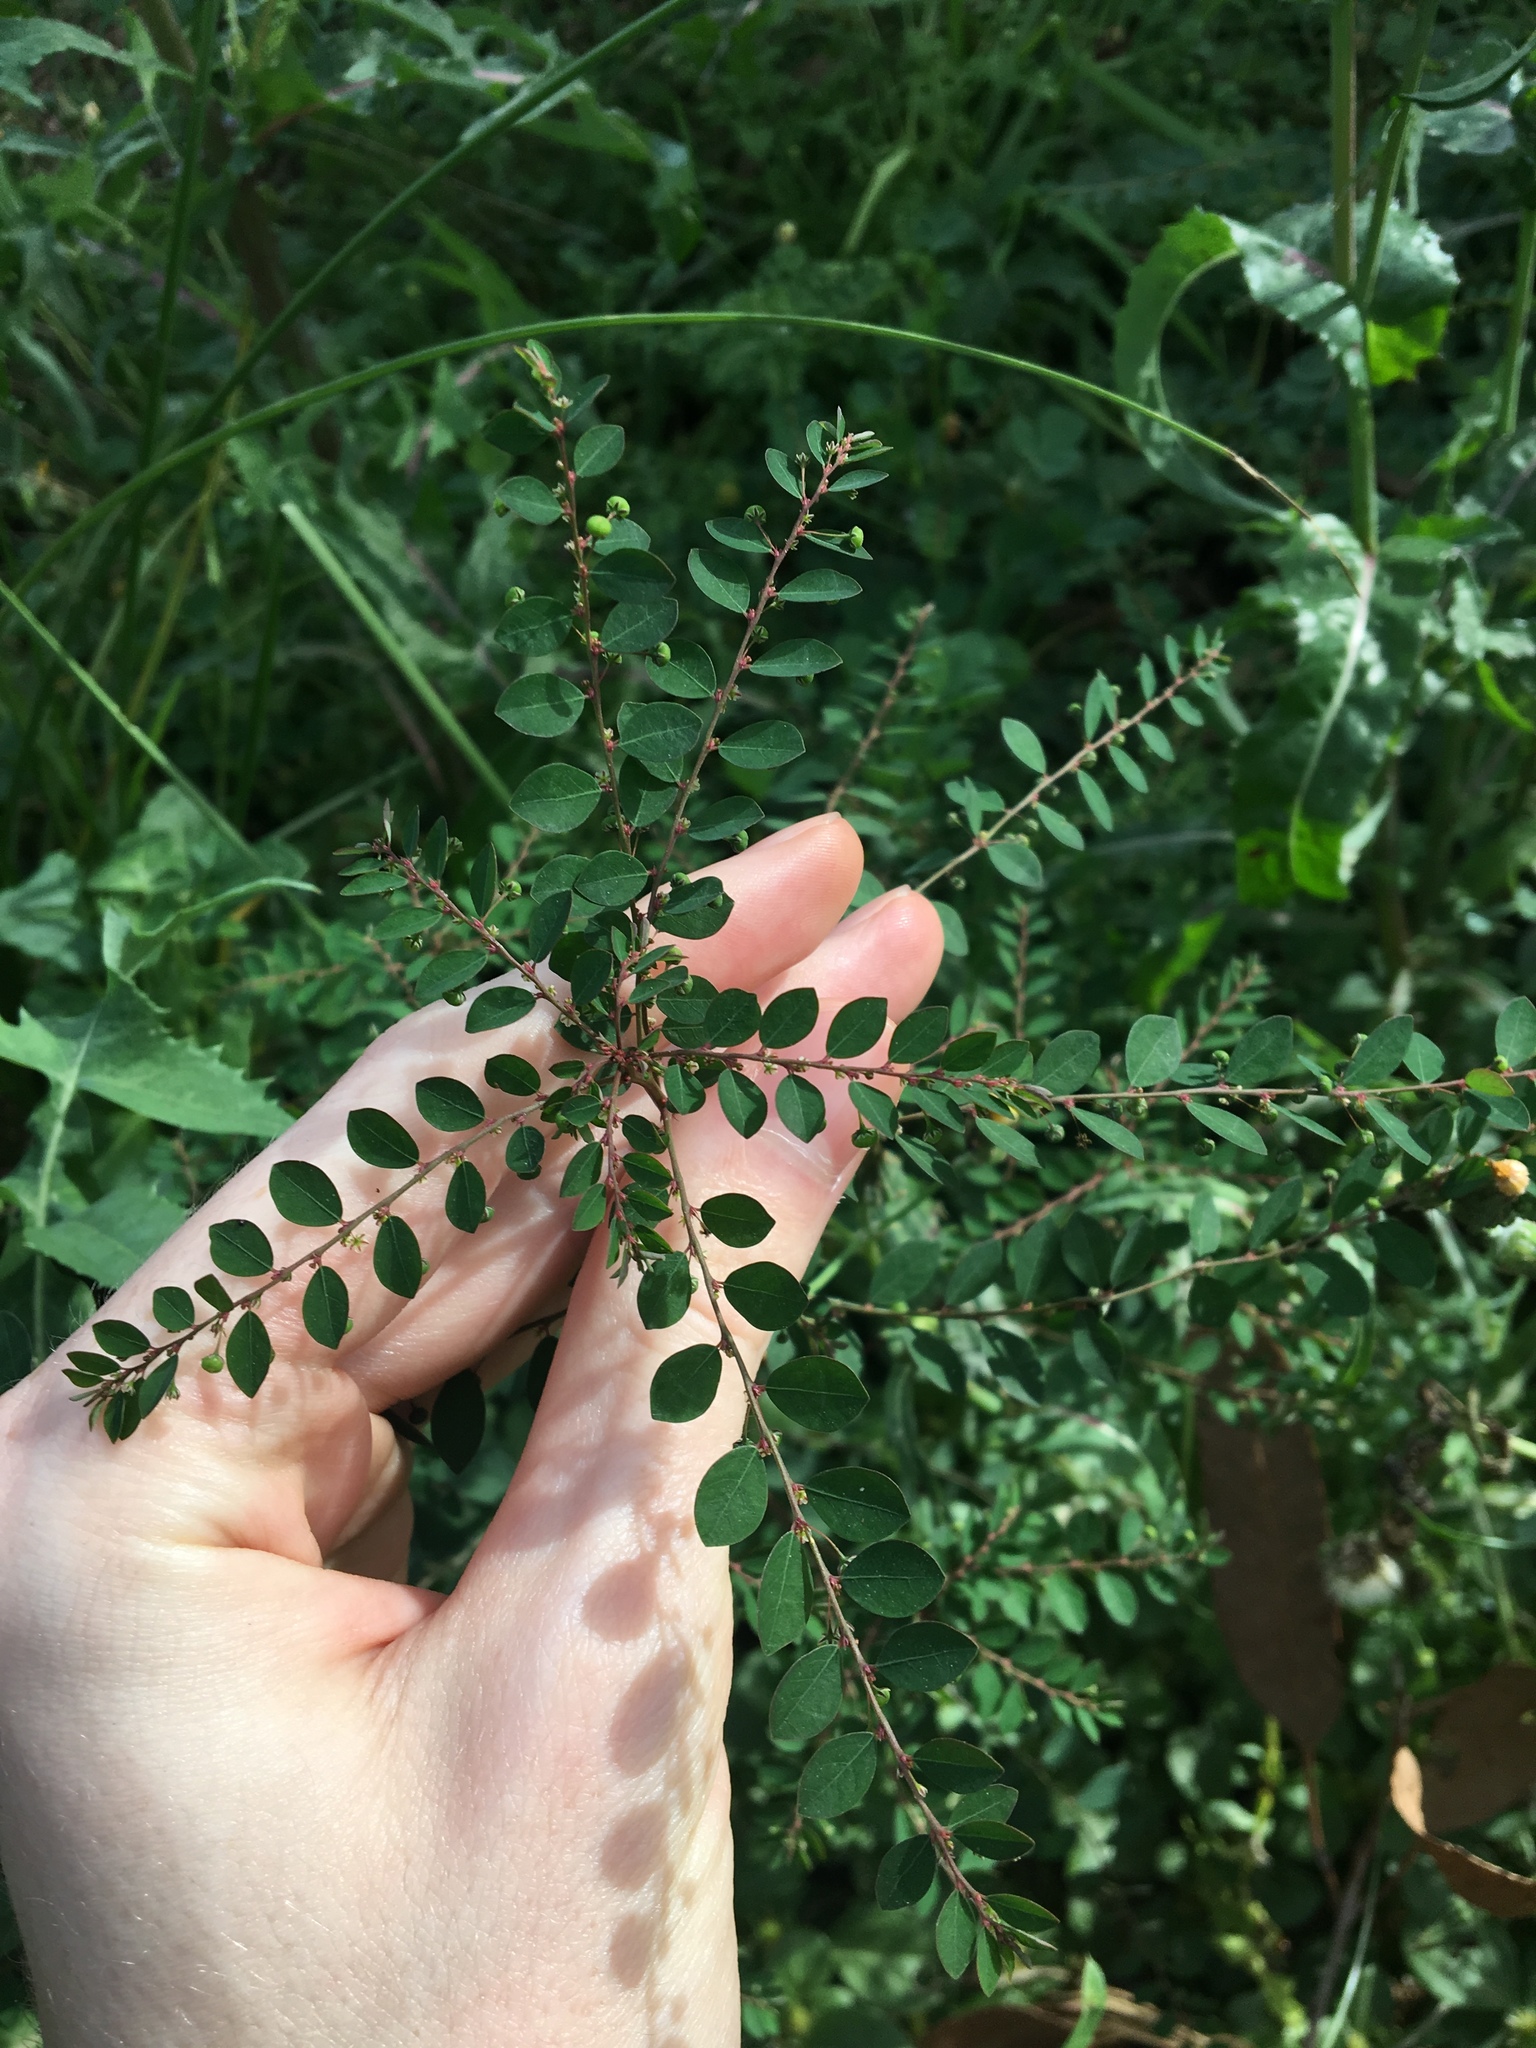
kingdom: Plantae
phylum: Tracheophyta
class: Magnoliopsida
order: Malpighiales
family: Phyllanthaceae
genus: Phyllanthus
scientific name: Phyllanthus tenellus
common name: Mascarene island leaf-flower
